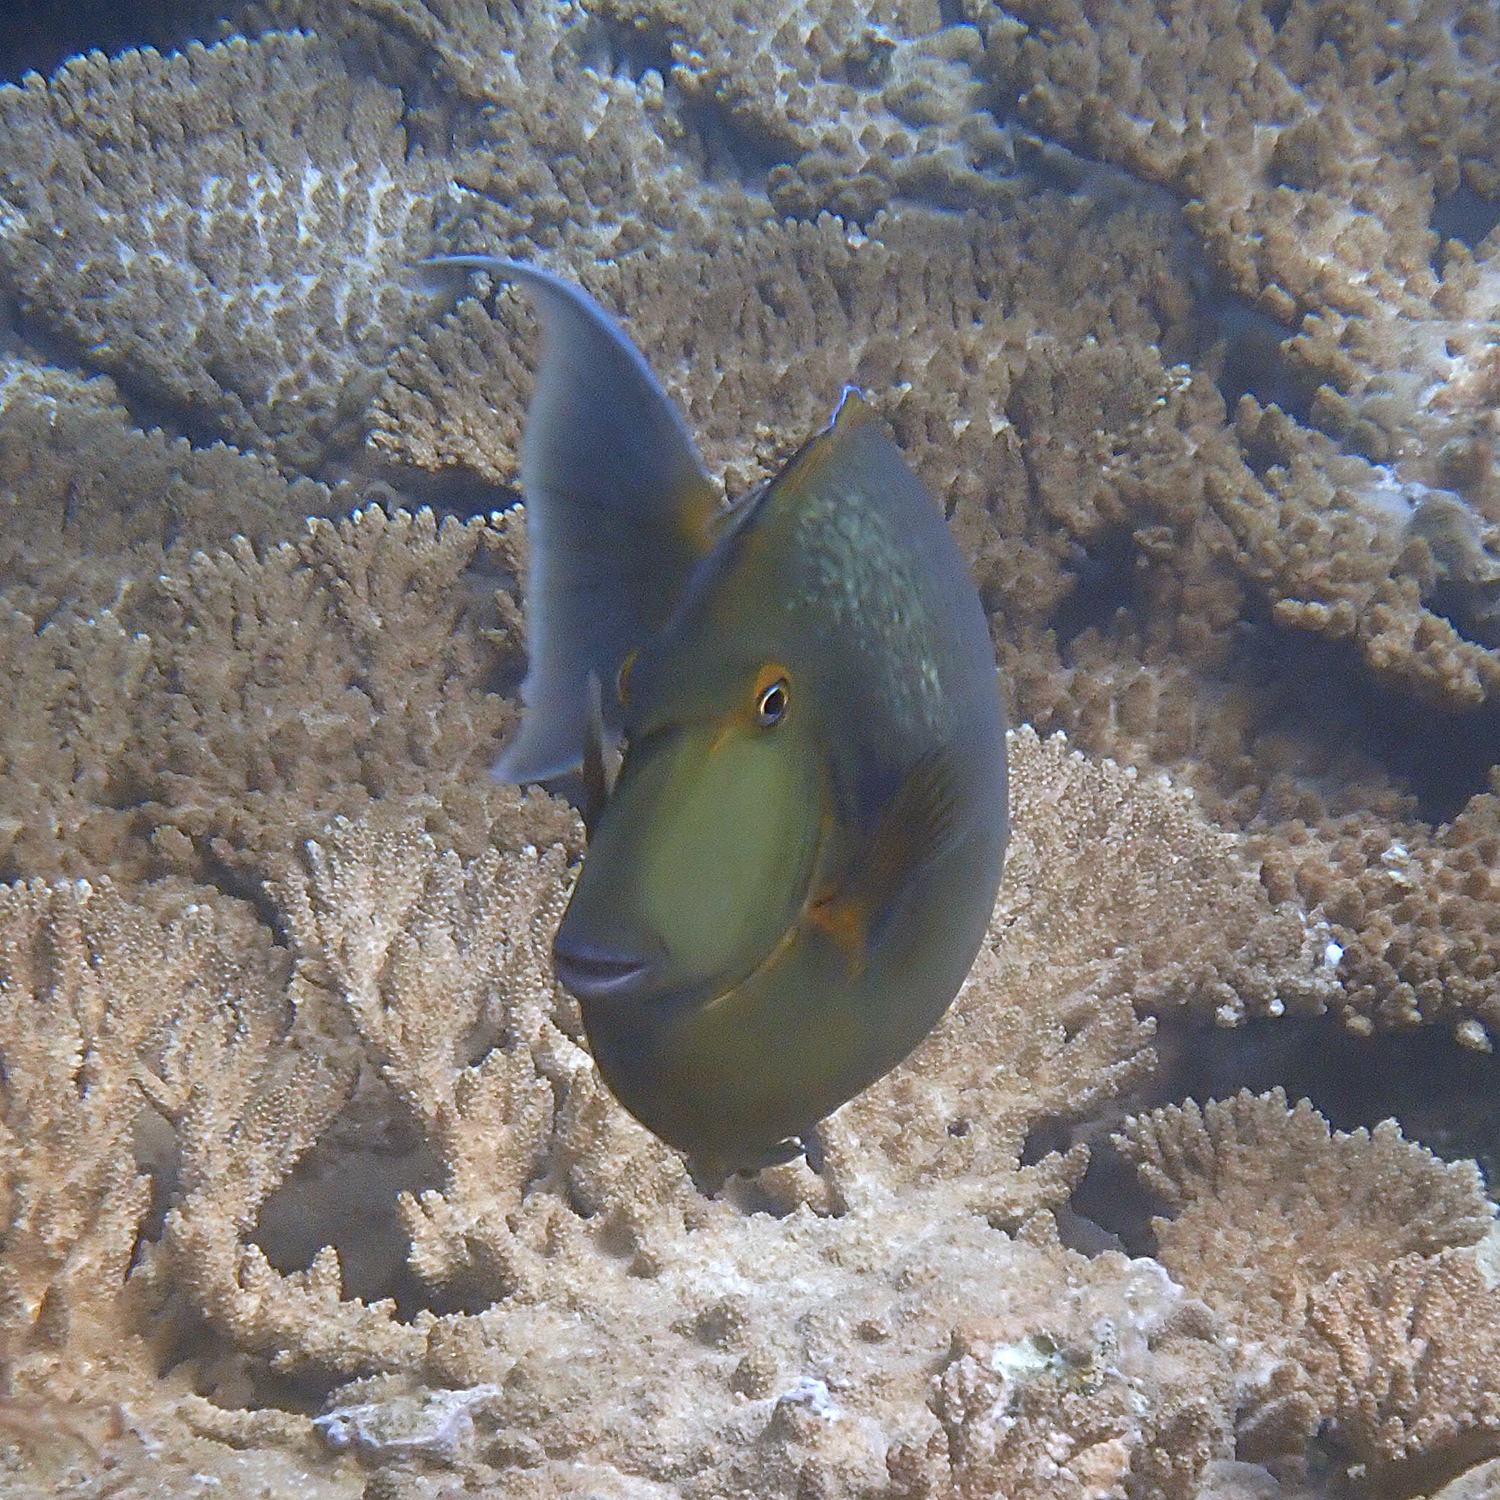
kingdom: Animalia
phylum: Chordata
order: Perciformes
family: Acanthuridae
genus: Naso
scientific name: Naso unicornis
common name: Bluespine unicornfish
